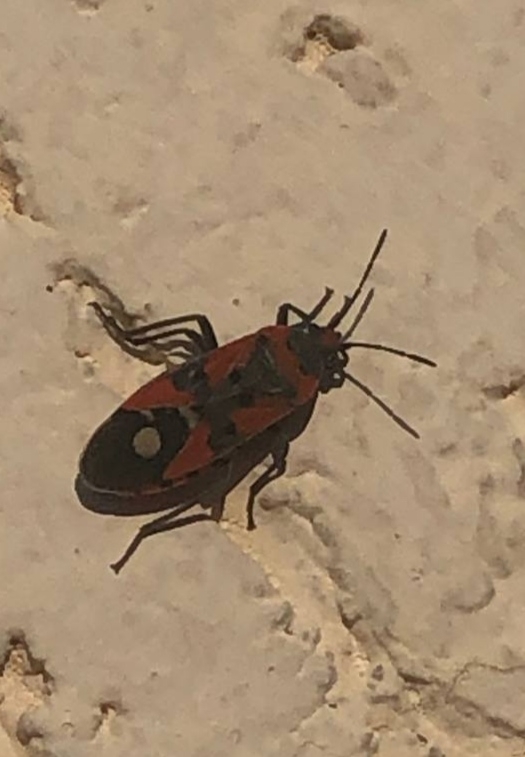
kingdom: Animalia
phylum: Arthropoda
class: Insecta
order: Hemiptera
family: Lygaeidae
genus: Lygaeus
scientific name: Lygaeus equestris
